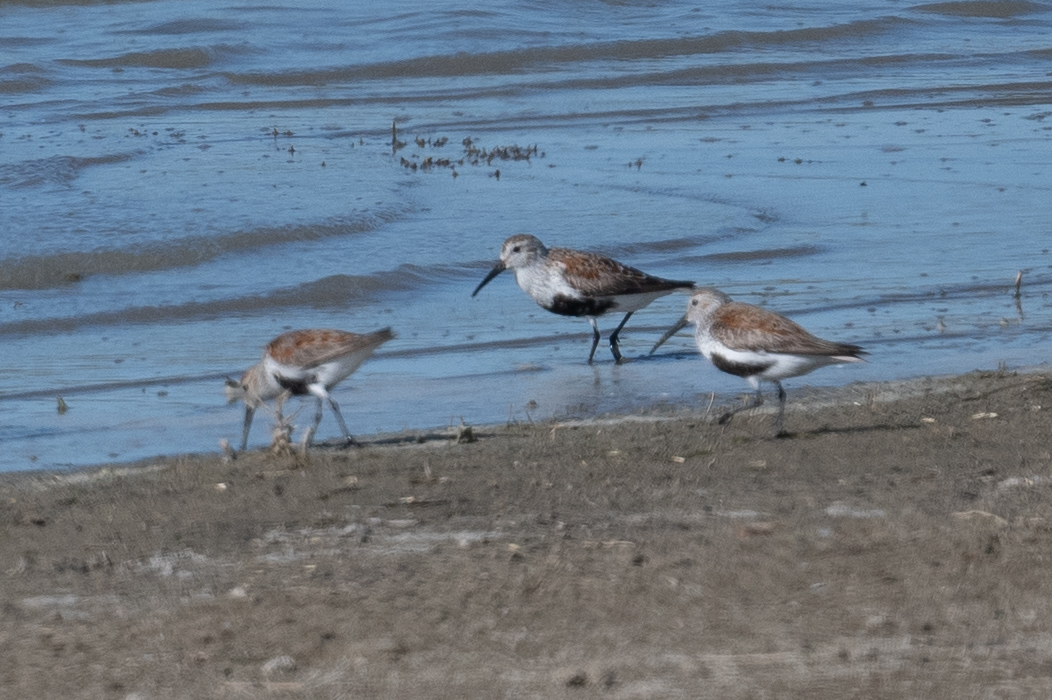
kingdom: Animalia
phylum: Chordata
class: Aves
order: Charadriiformes
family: Scolopacidae
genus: Calidris
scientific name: Calidris alpina
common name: Dunlin
